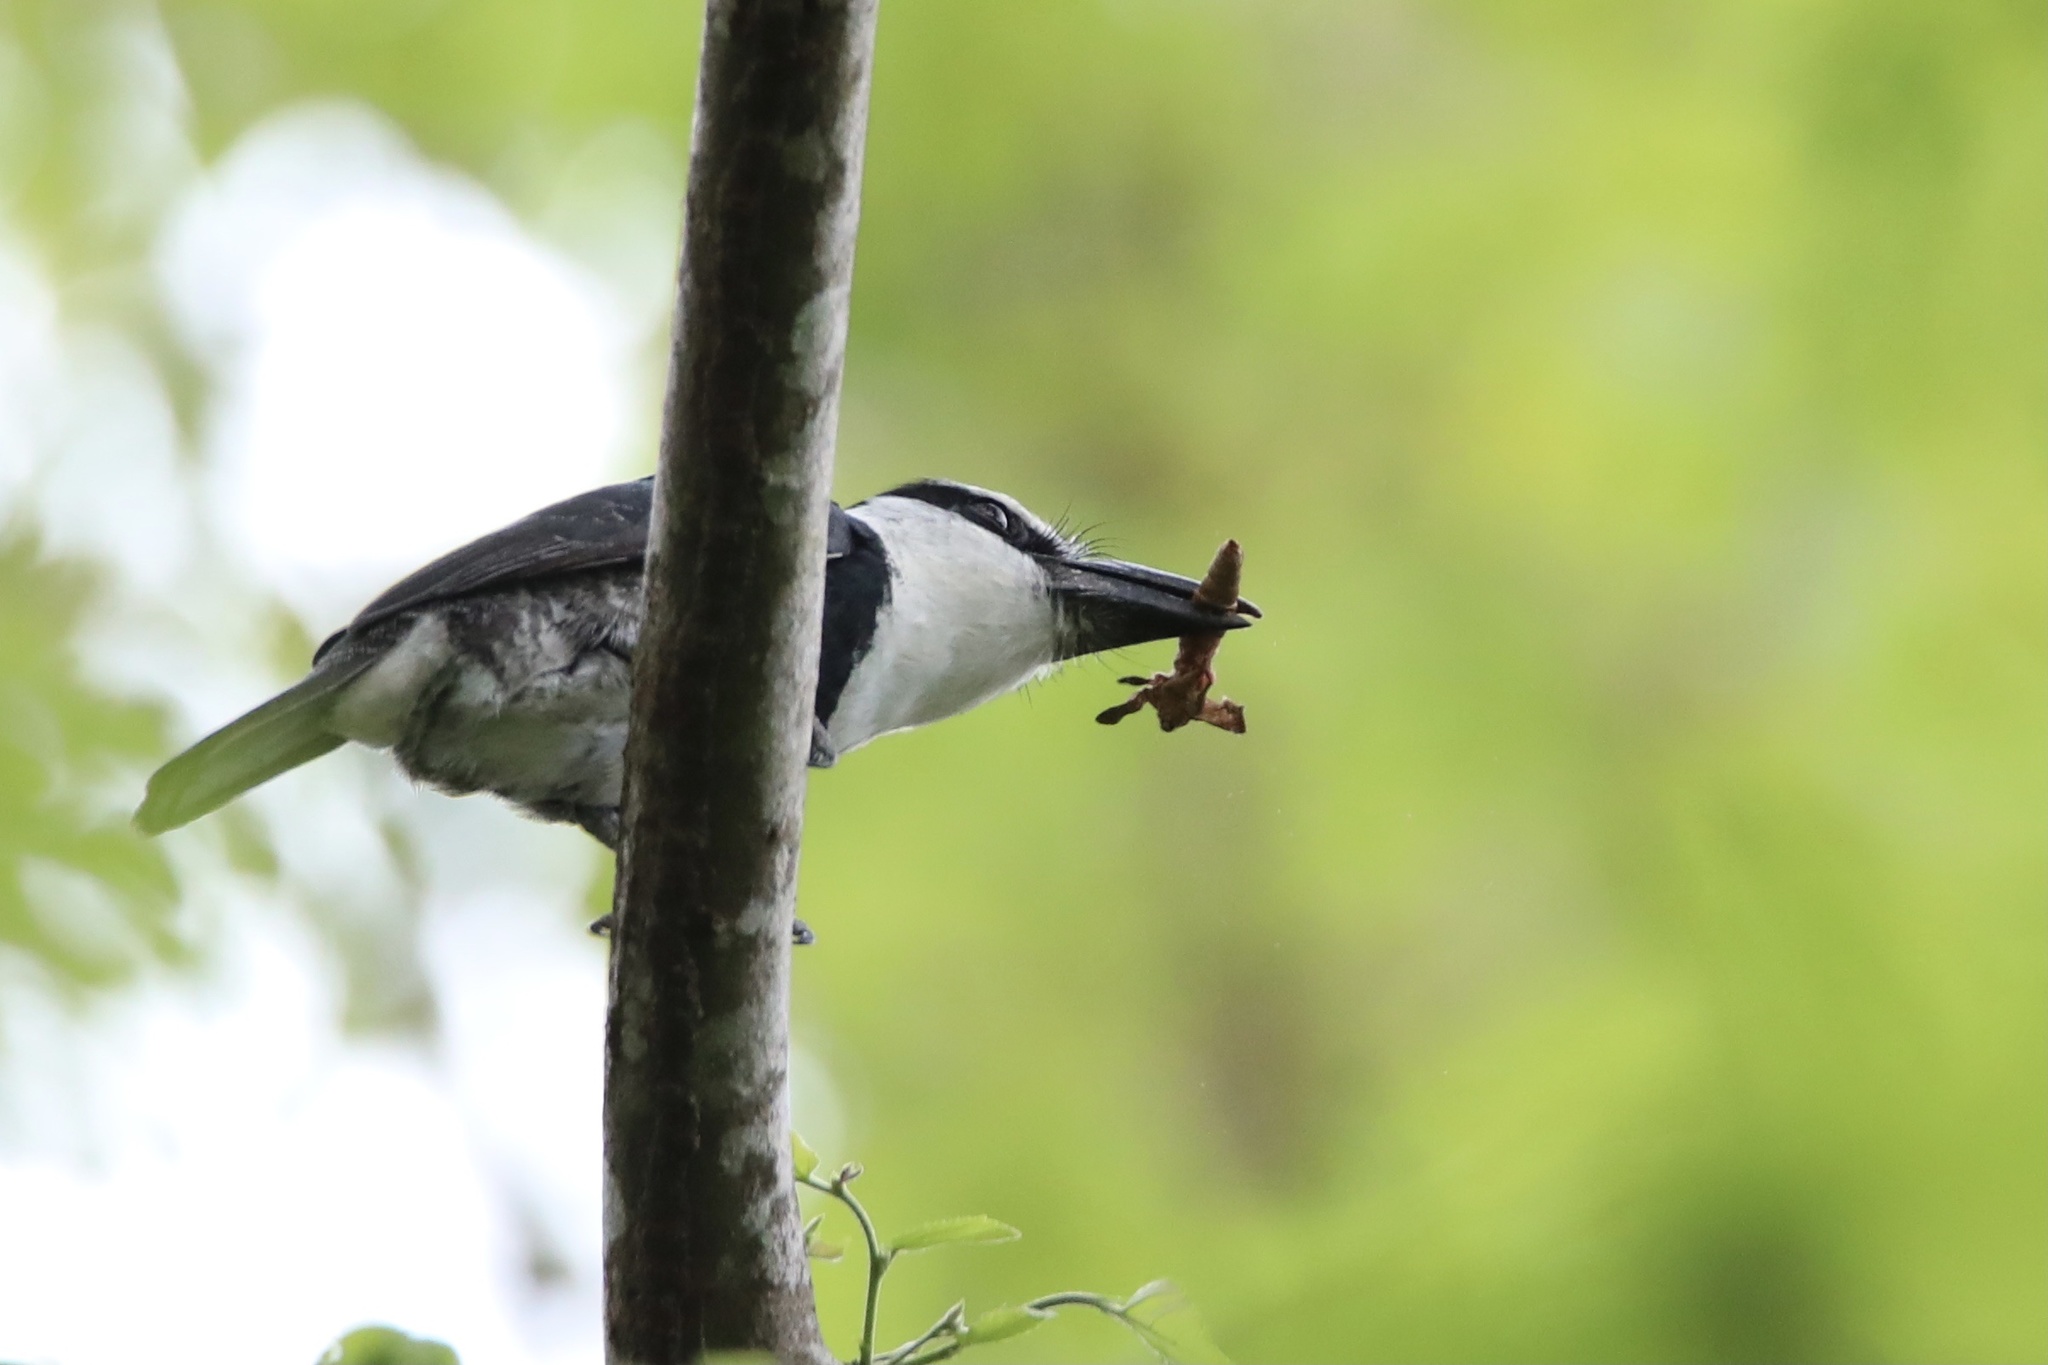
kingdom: Animalia
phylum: Chordata
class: Aves
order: Piciformes
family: Bucconidae
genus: Notharchus
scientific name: Notharchus hyperrhynchus
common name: White-necked puffbird
